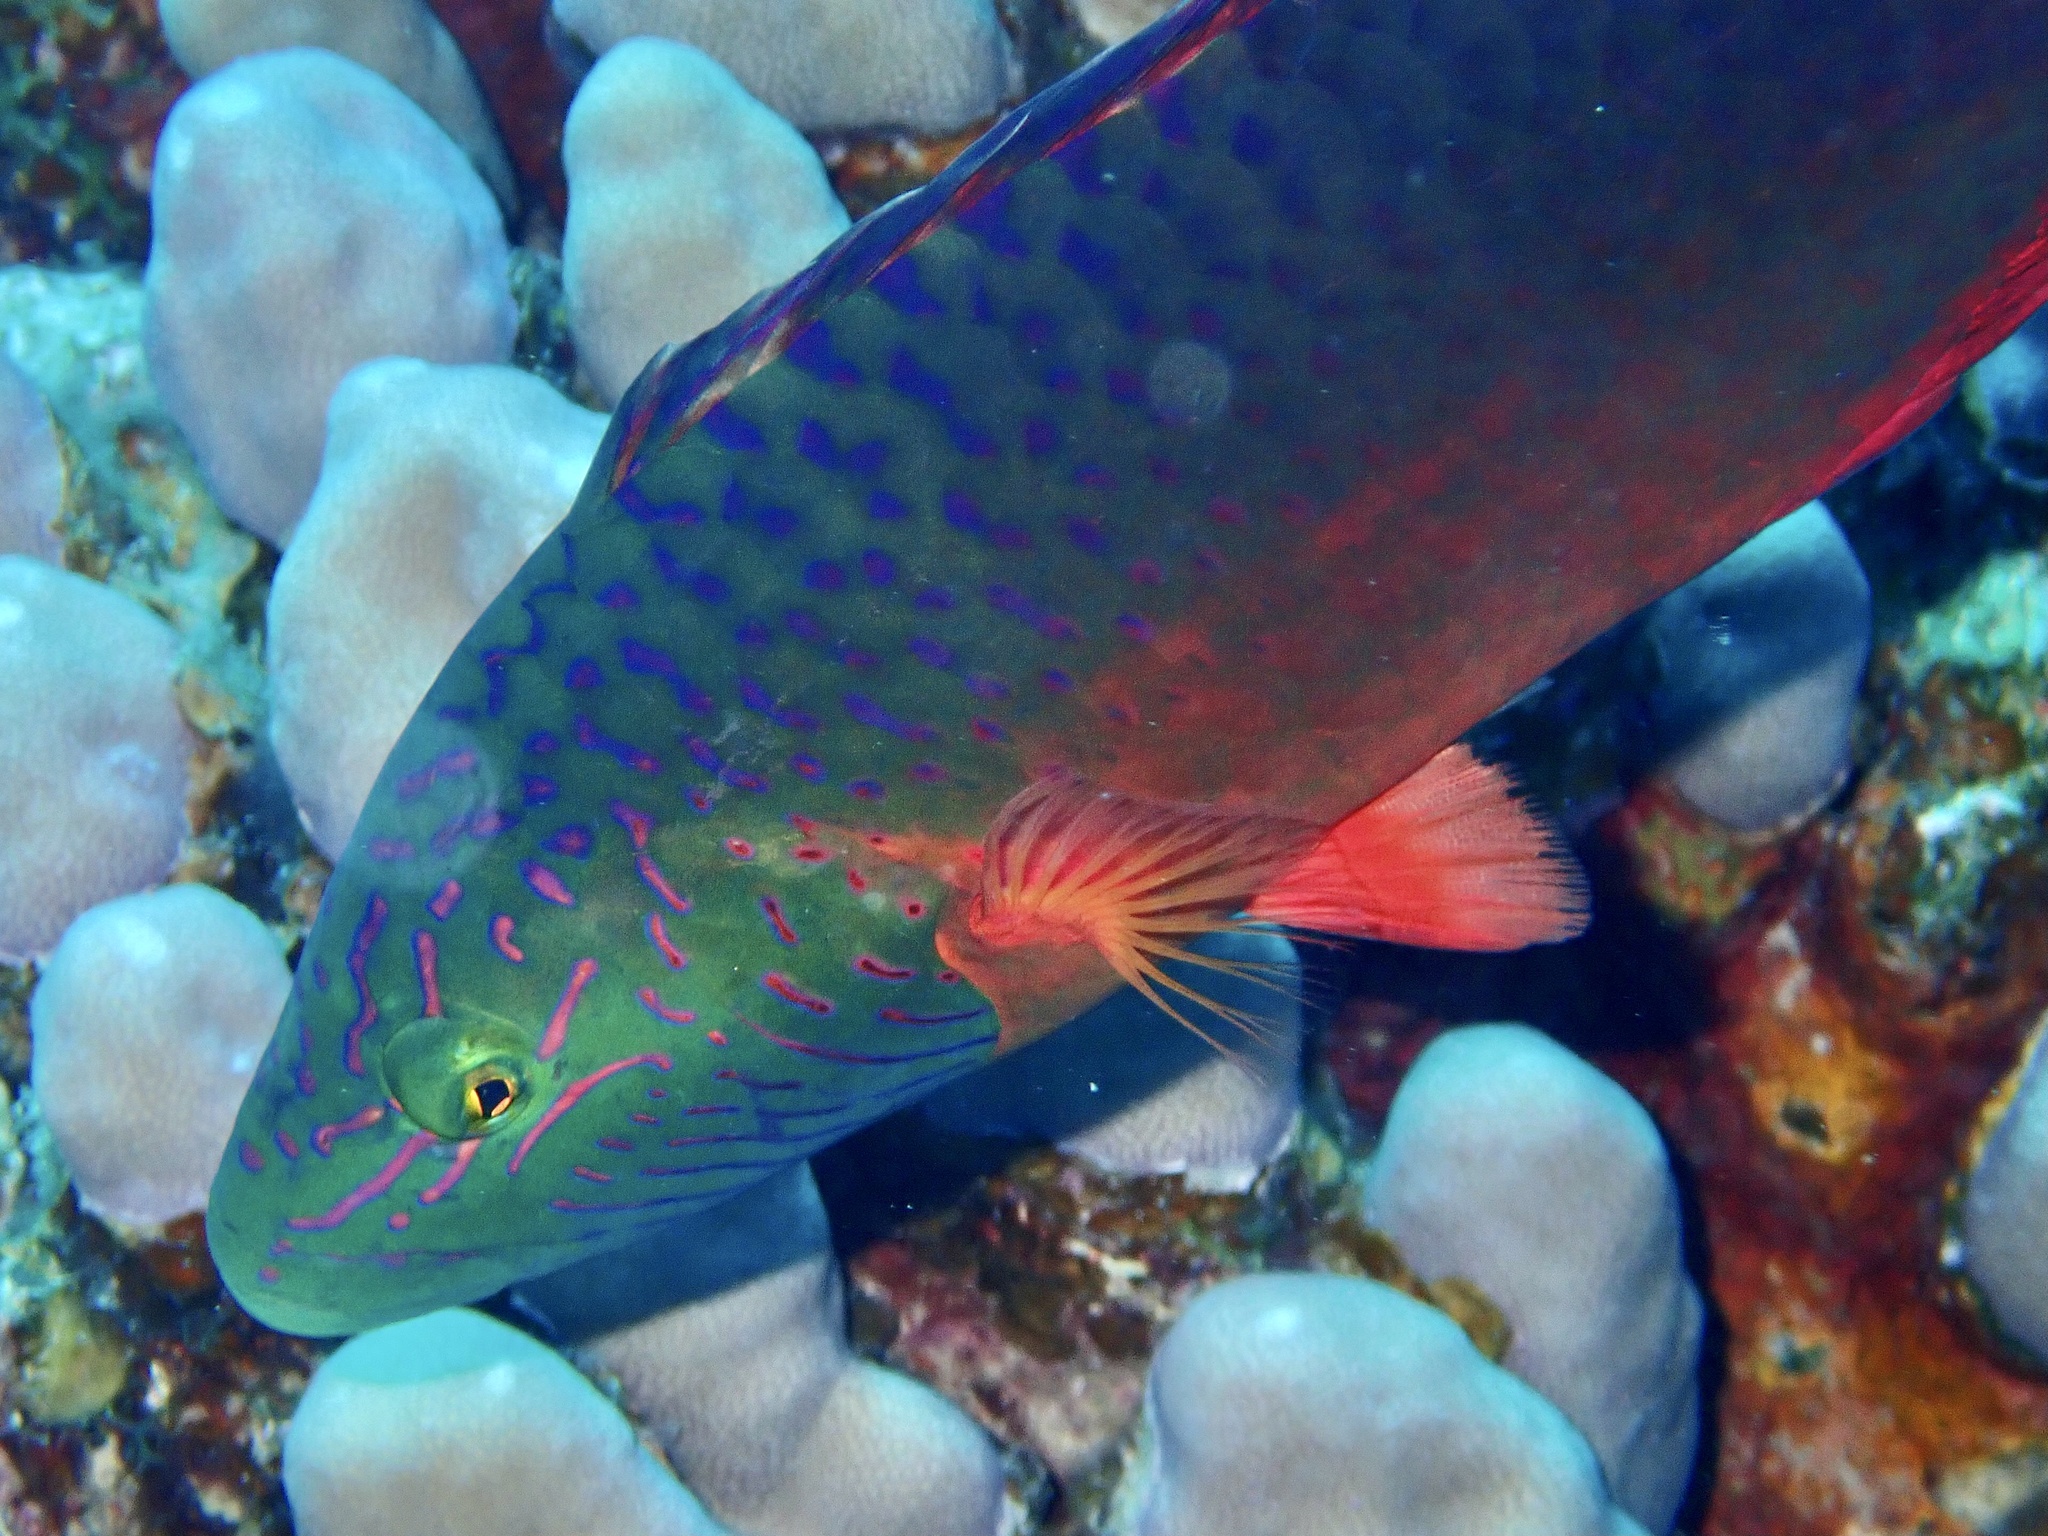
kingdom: Animalia
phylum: Chordata
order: Perciformes
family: Labridae
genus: Oxycheilinus
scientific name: Oxycheilinus digramma
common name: Bandcheek wrasse
